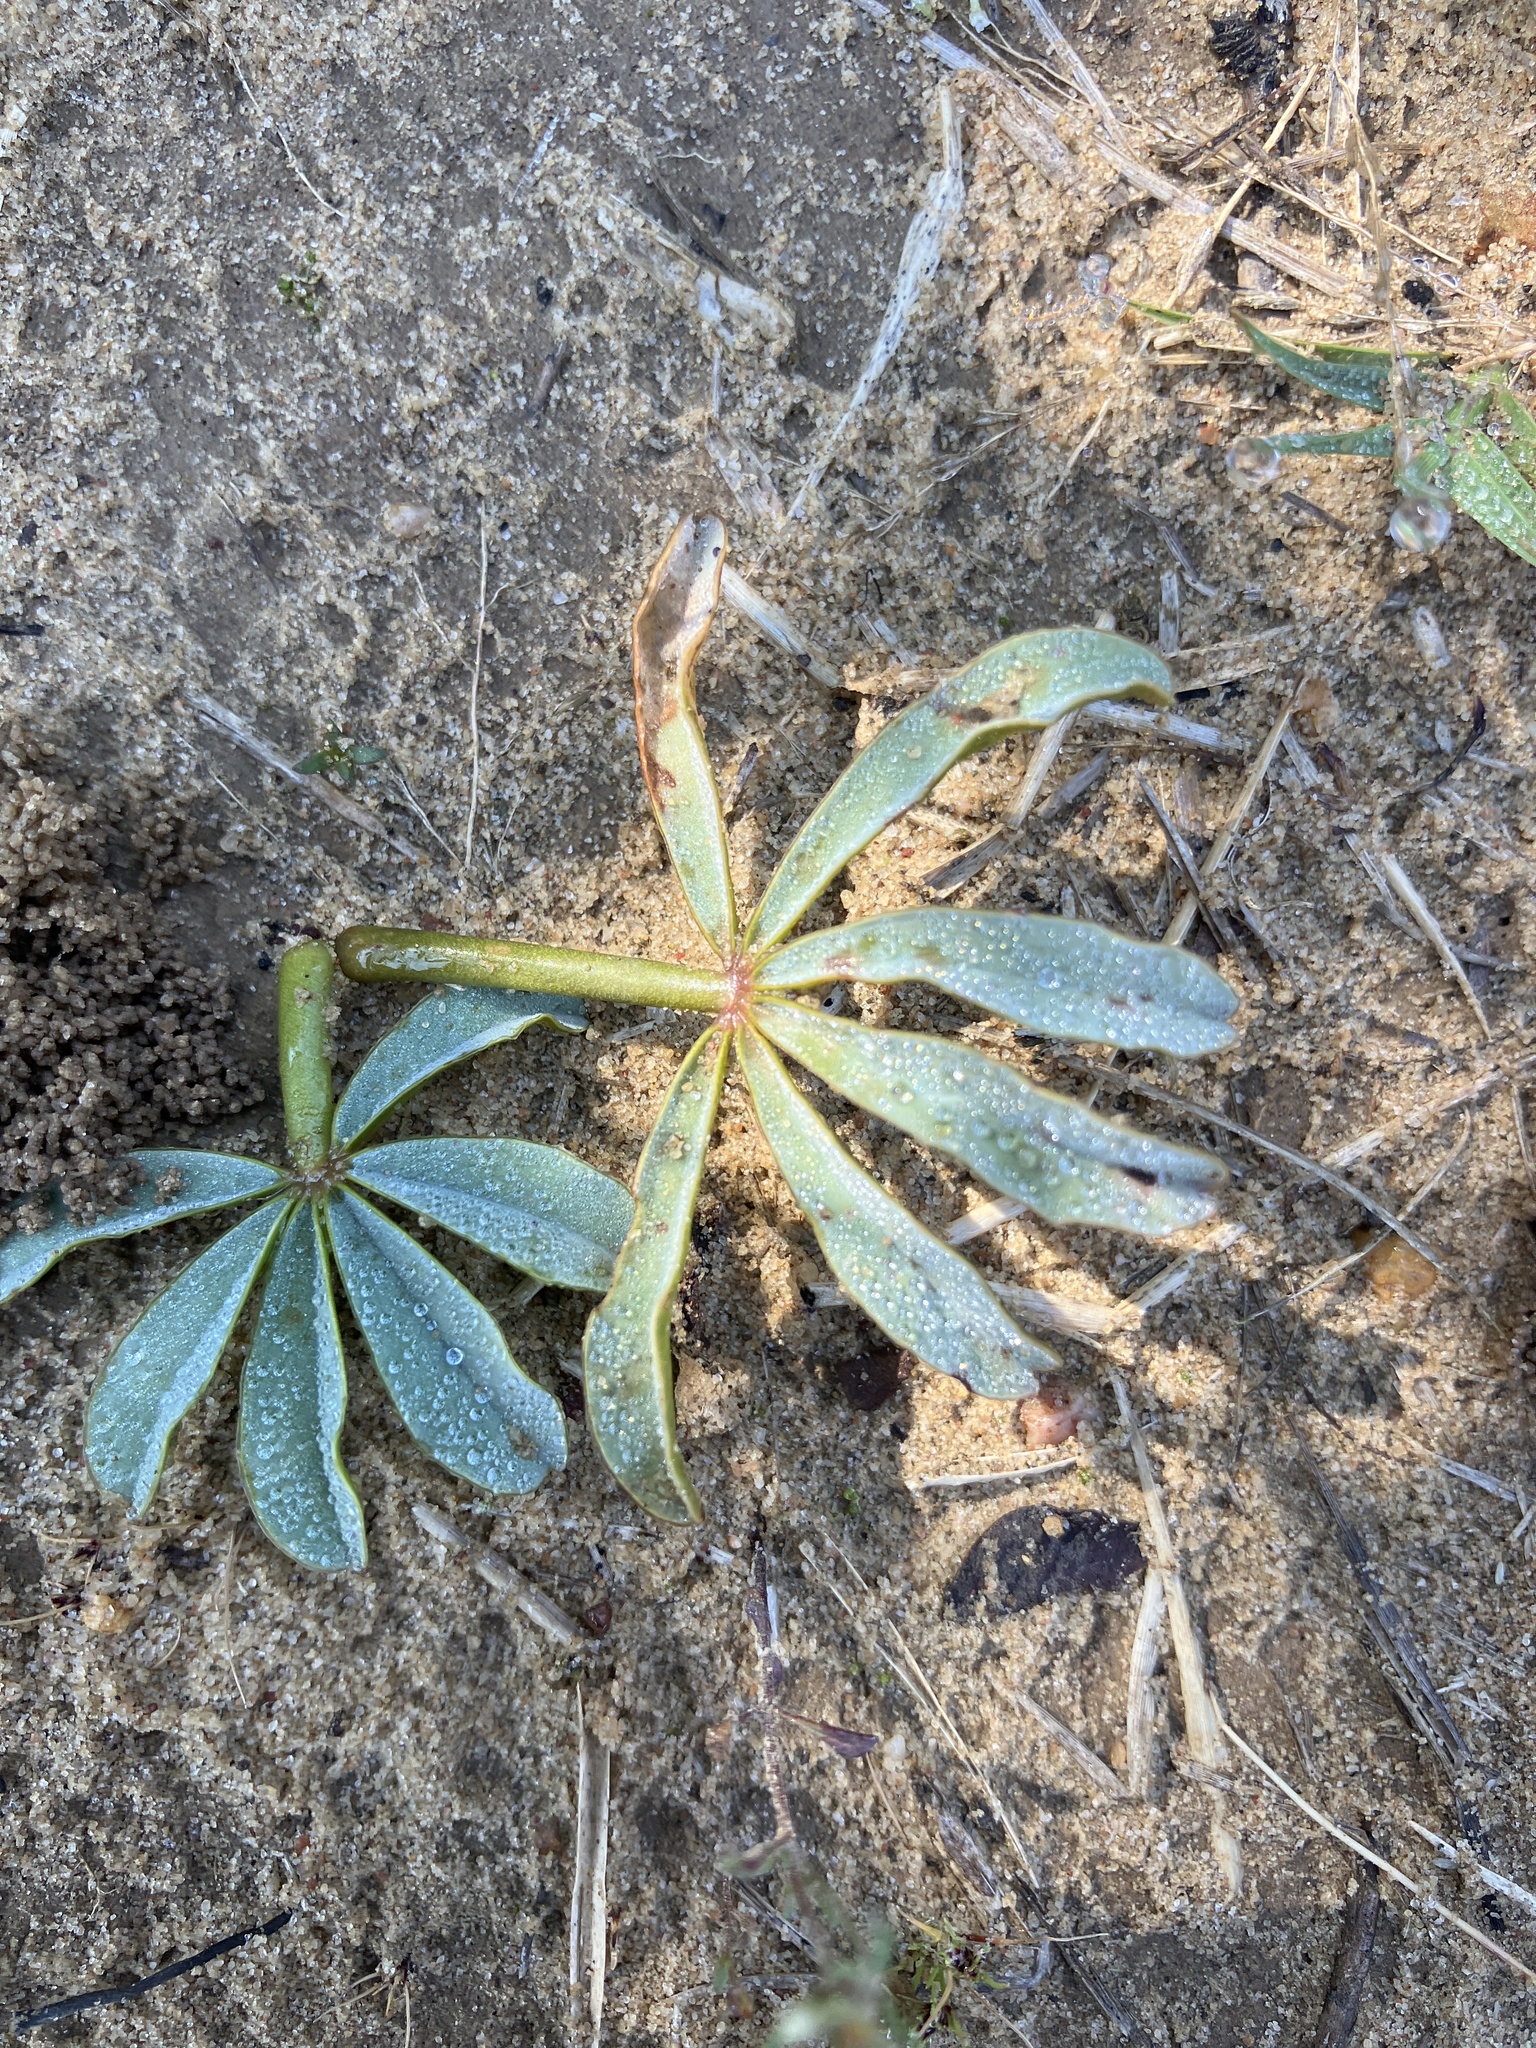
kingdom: Plantae
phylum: Tracheophyta
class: Magnoliopsida
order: Oxalidales
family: Oxalidaceae
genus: Oxalis
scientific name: Oxalis flava
